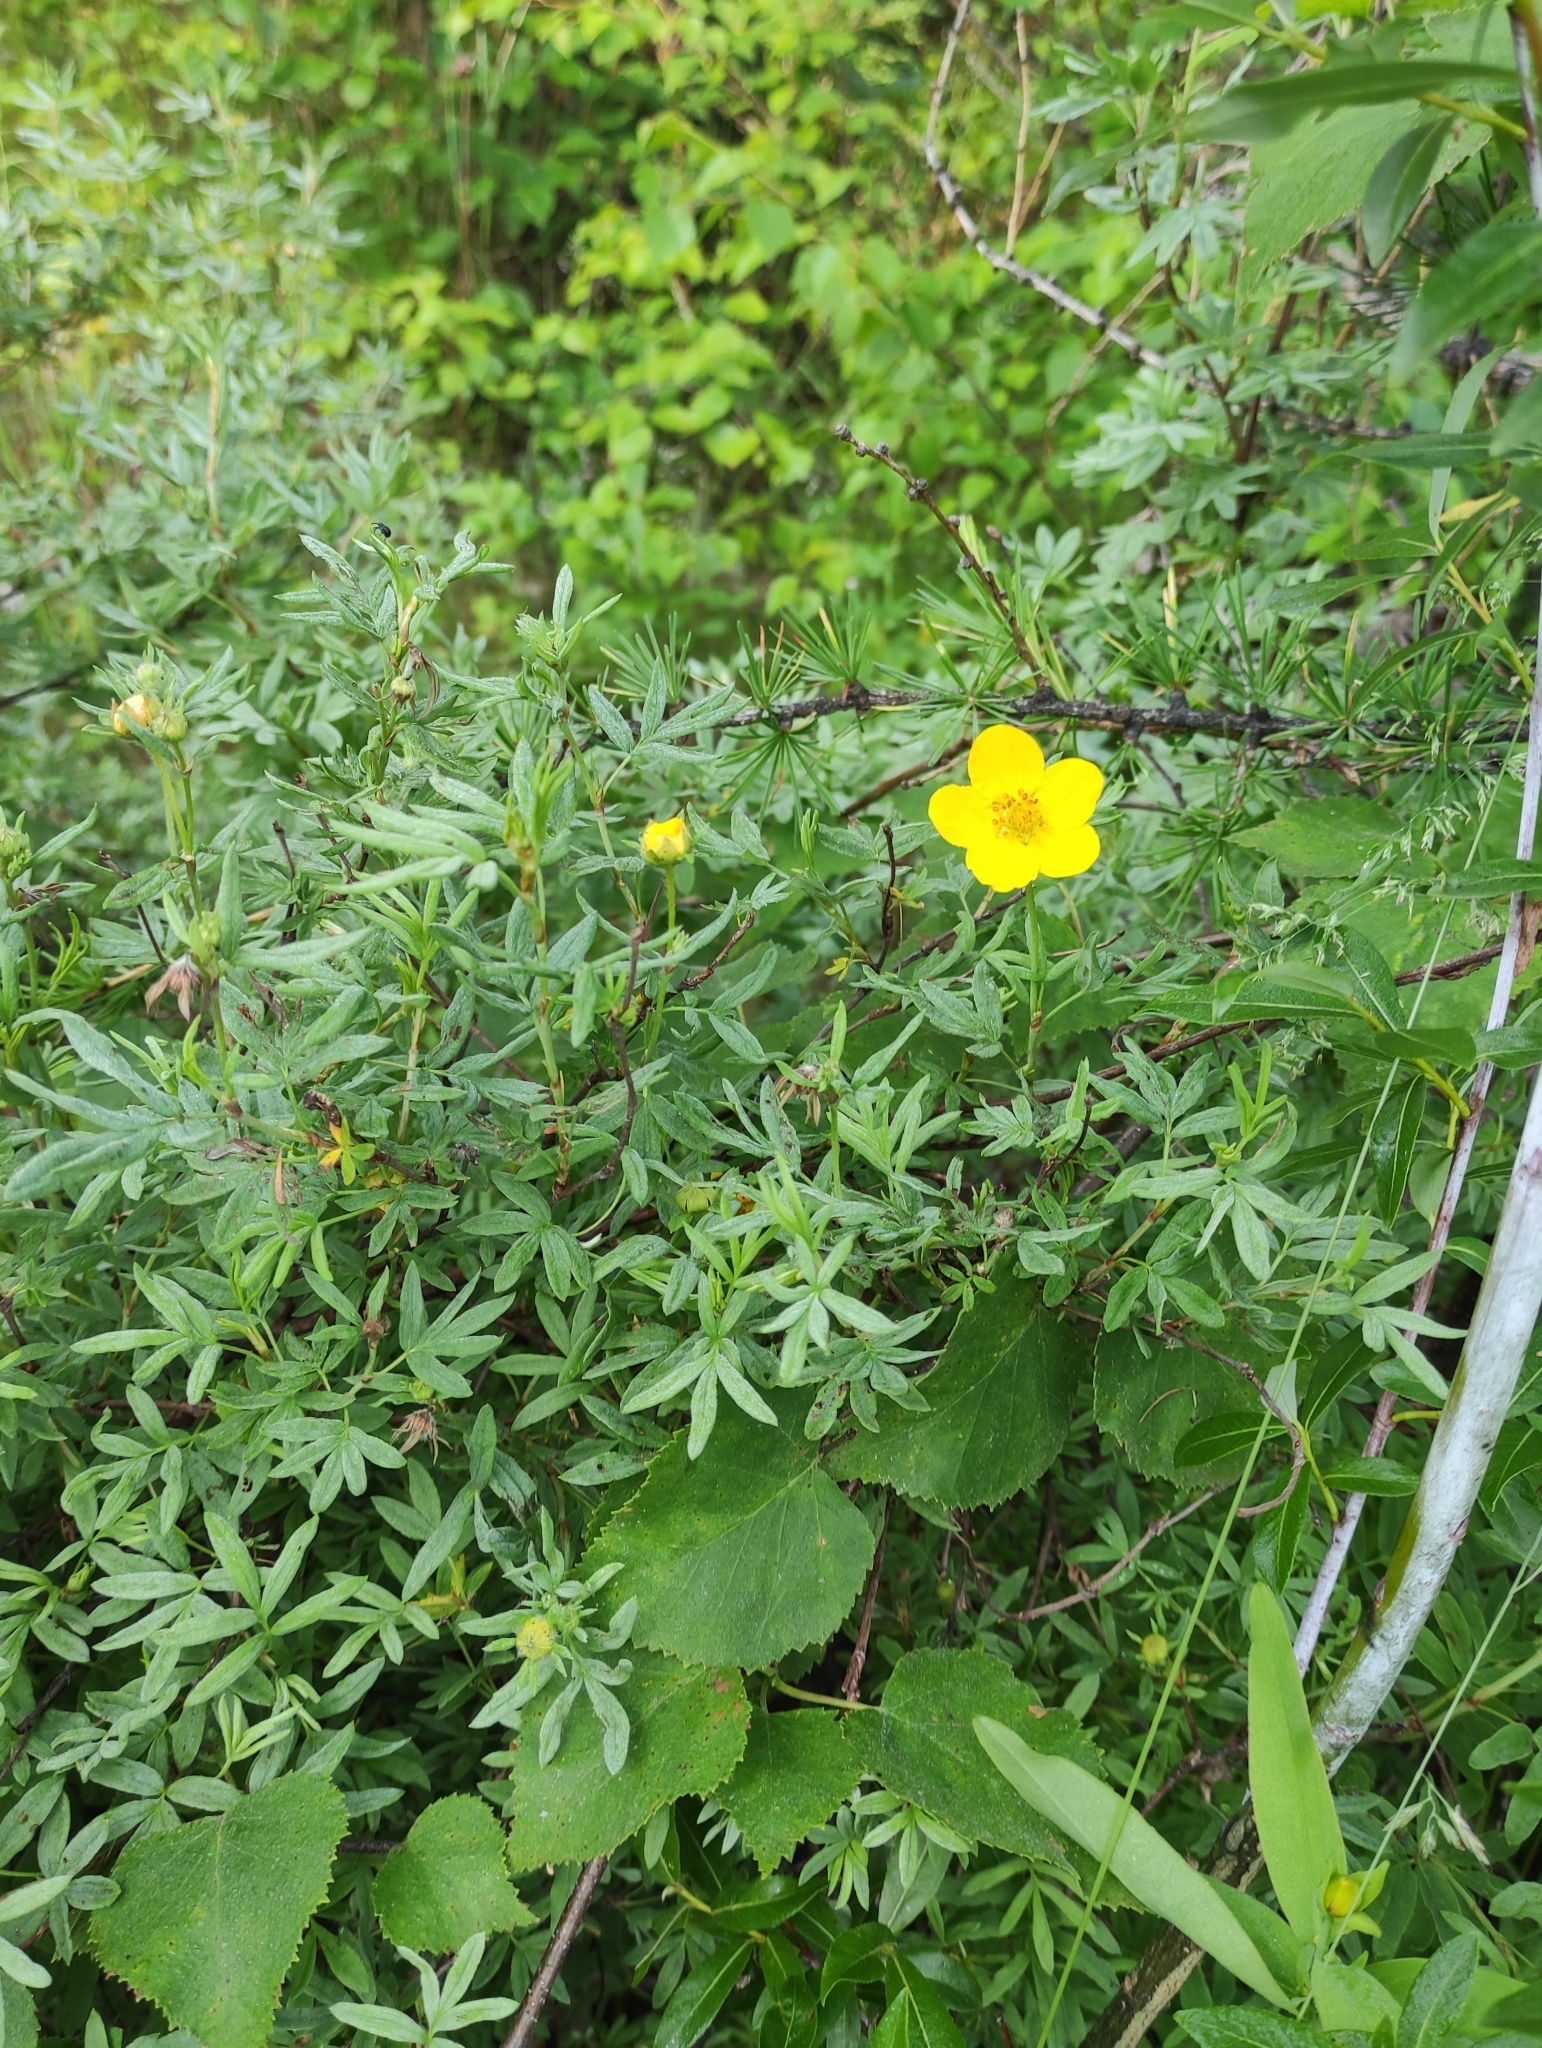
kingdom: Plantae
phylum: Tracheophyta
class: Magnoliopsida
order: Rosales
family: Rosaceae
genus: Dasiphora
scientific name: Dasiphora fruticosa
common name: Shrubby cinquefoil
